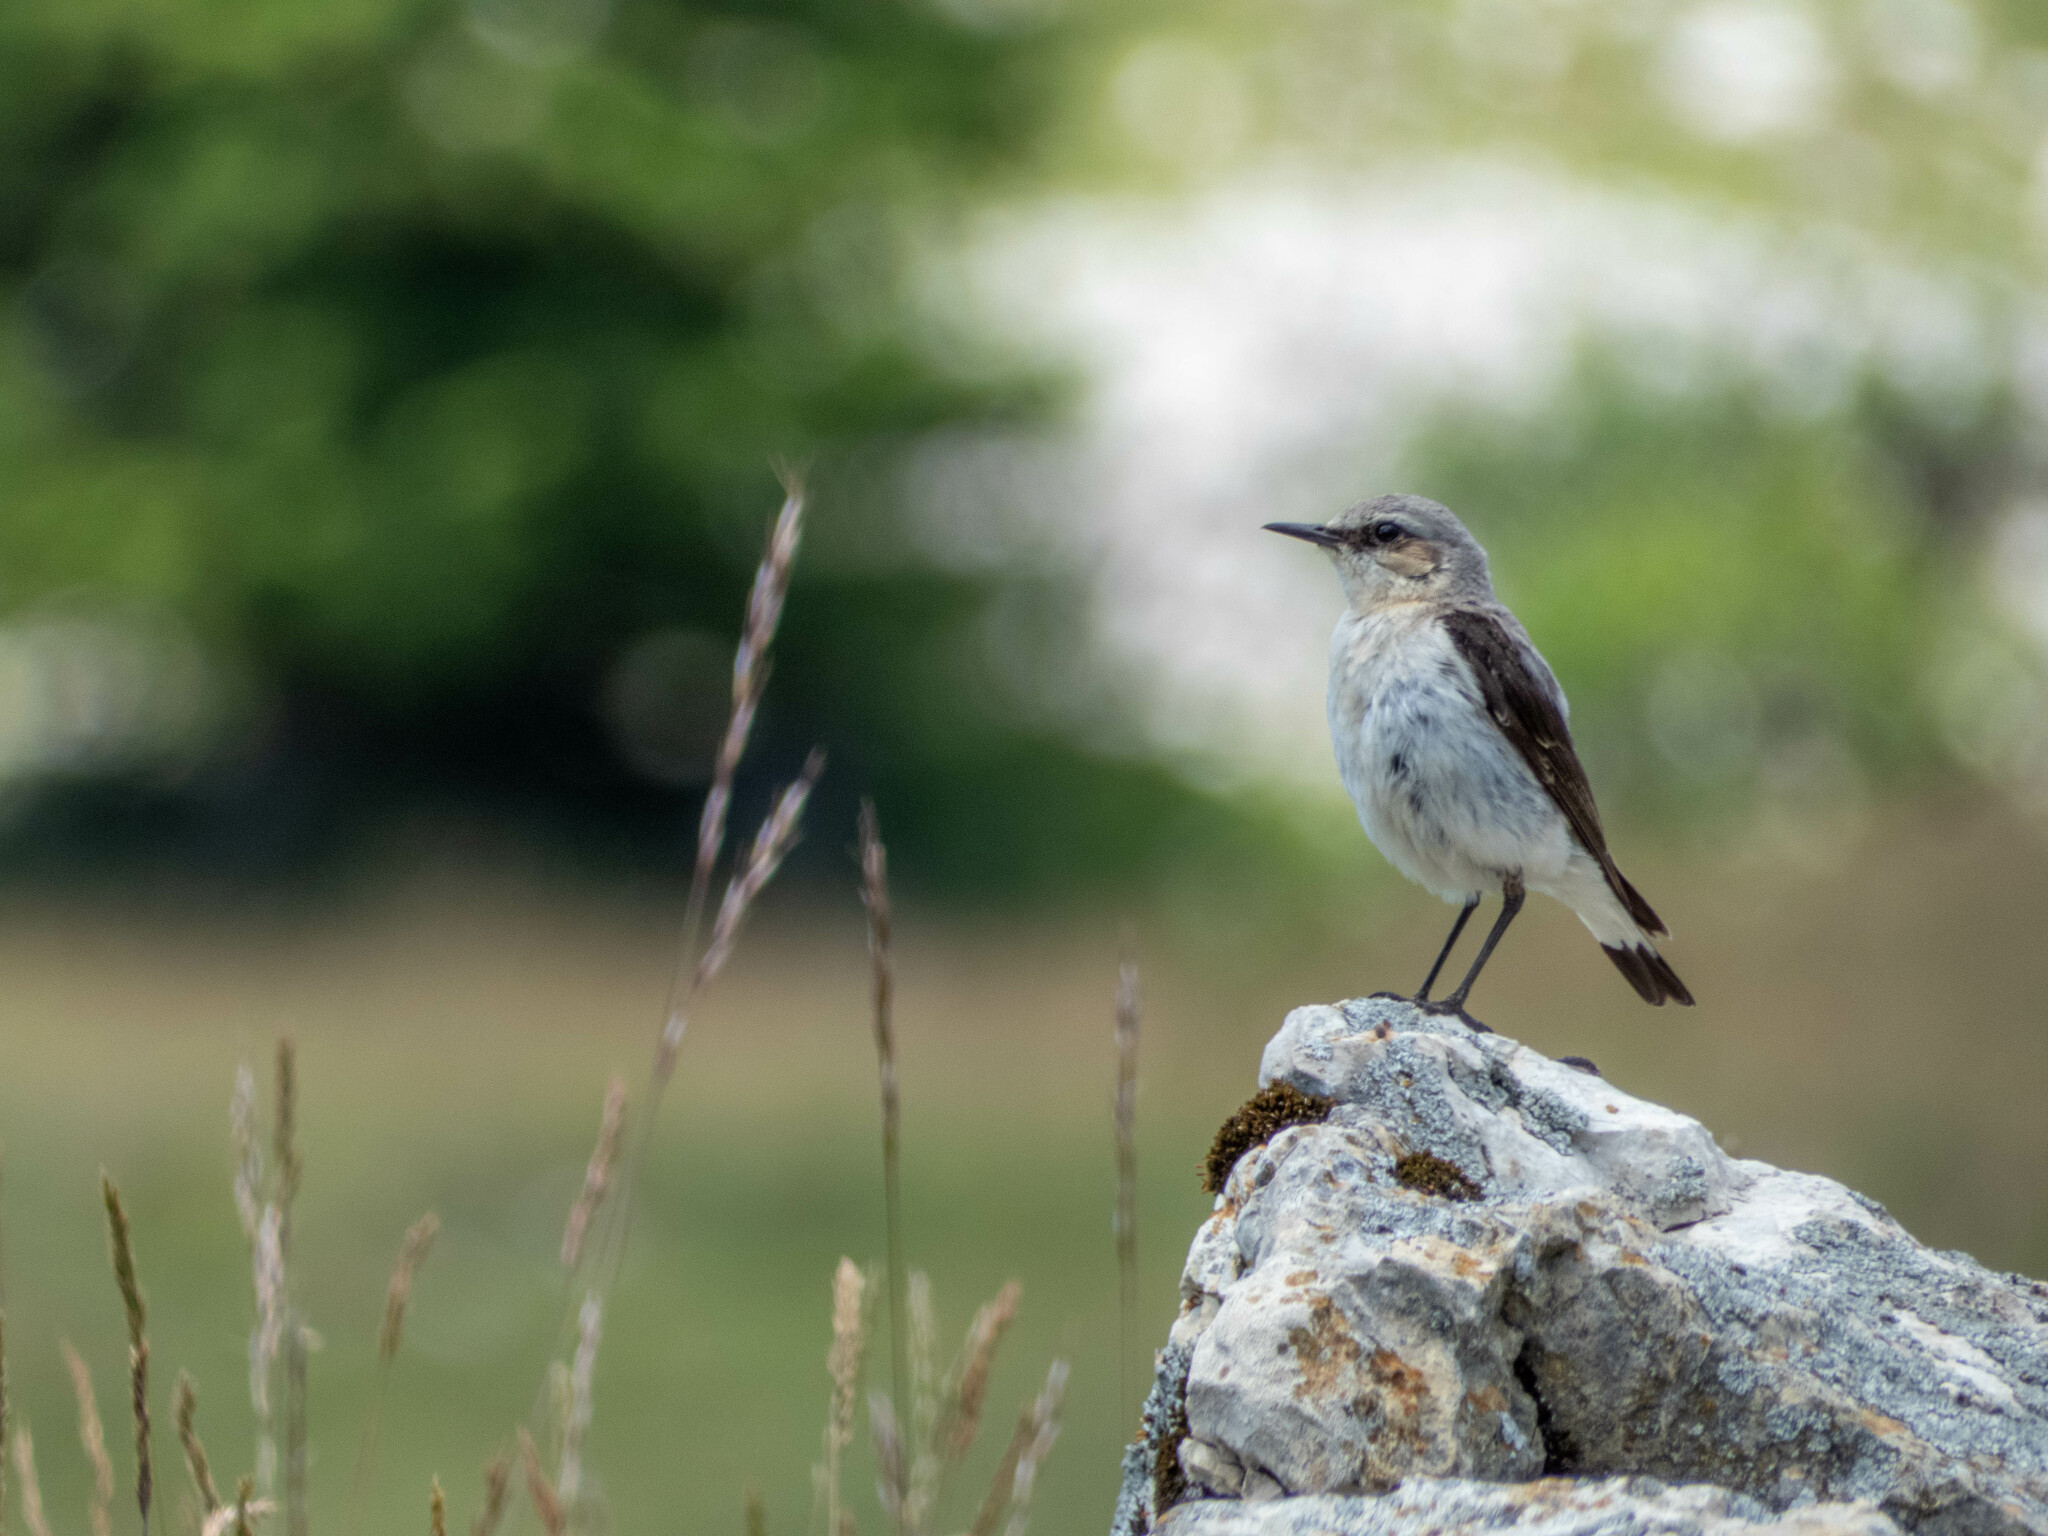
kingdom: Animalia
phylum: Chordata
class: Aves
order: Passeriformes
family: Muscicapidae
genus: Oenanthe
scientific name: Oenanthe oenanthe
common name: Northern wheatear
